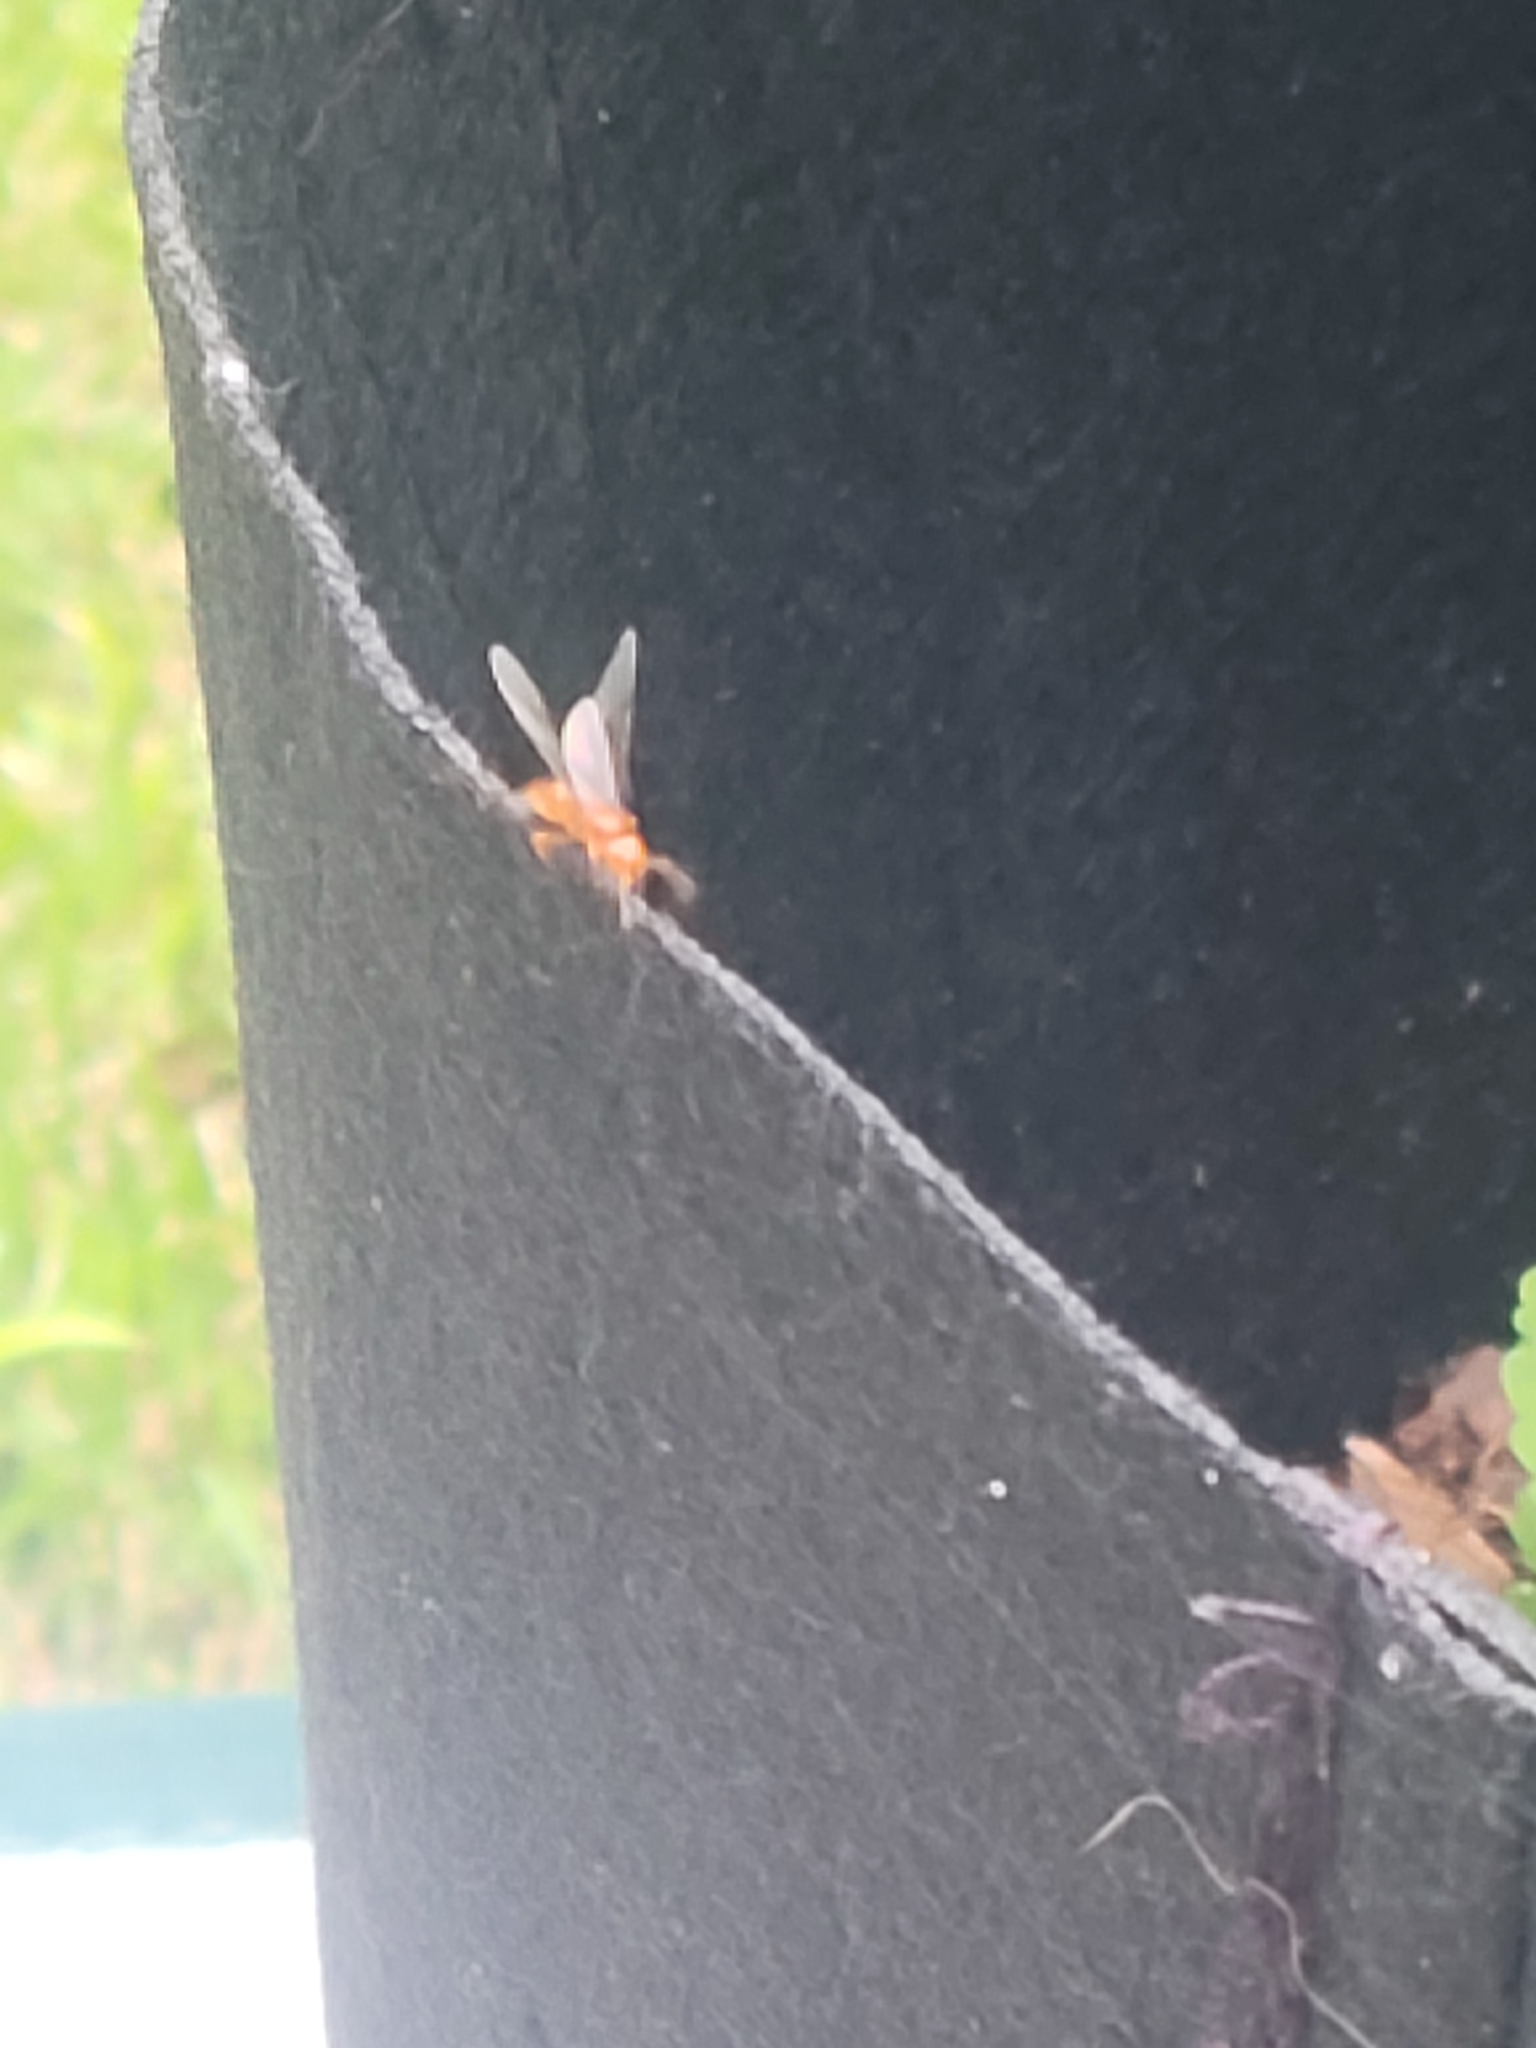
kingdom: Animalia
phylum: Arthropoda
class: Insecta
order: Hymenoptera
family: Formicidae
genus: Acanthomyops
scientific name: Acanthomyops interjectus
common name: Larger yellow ant
